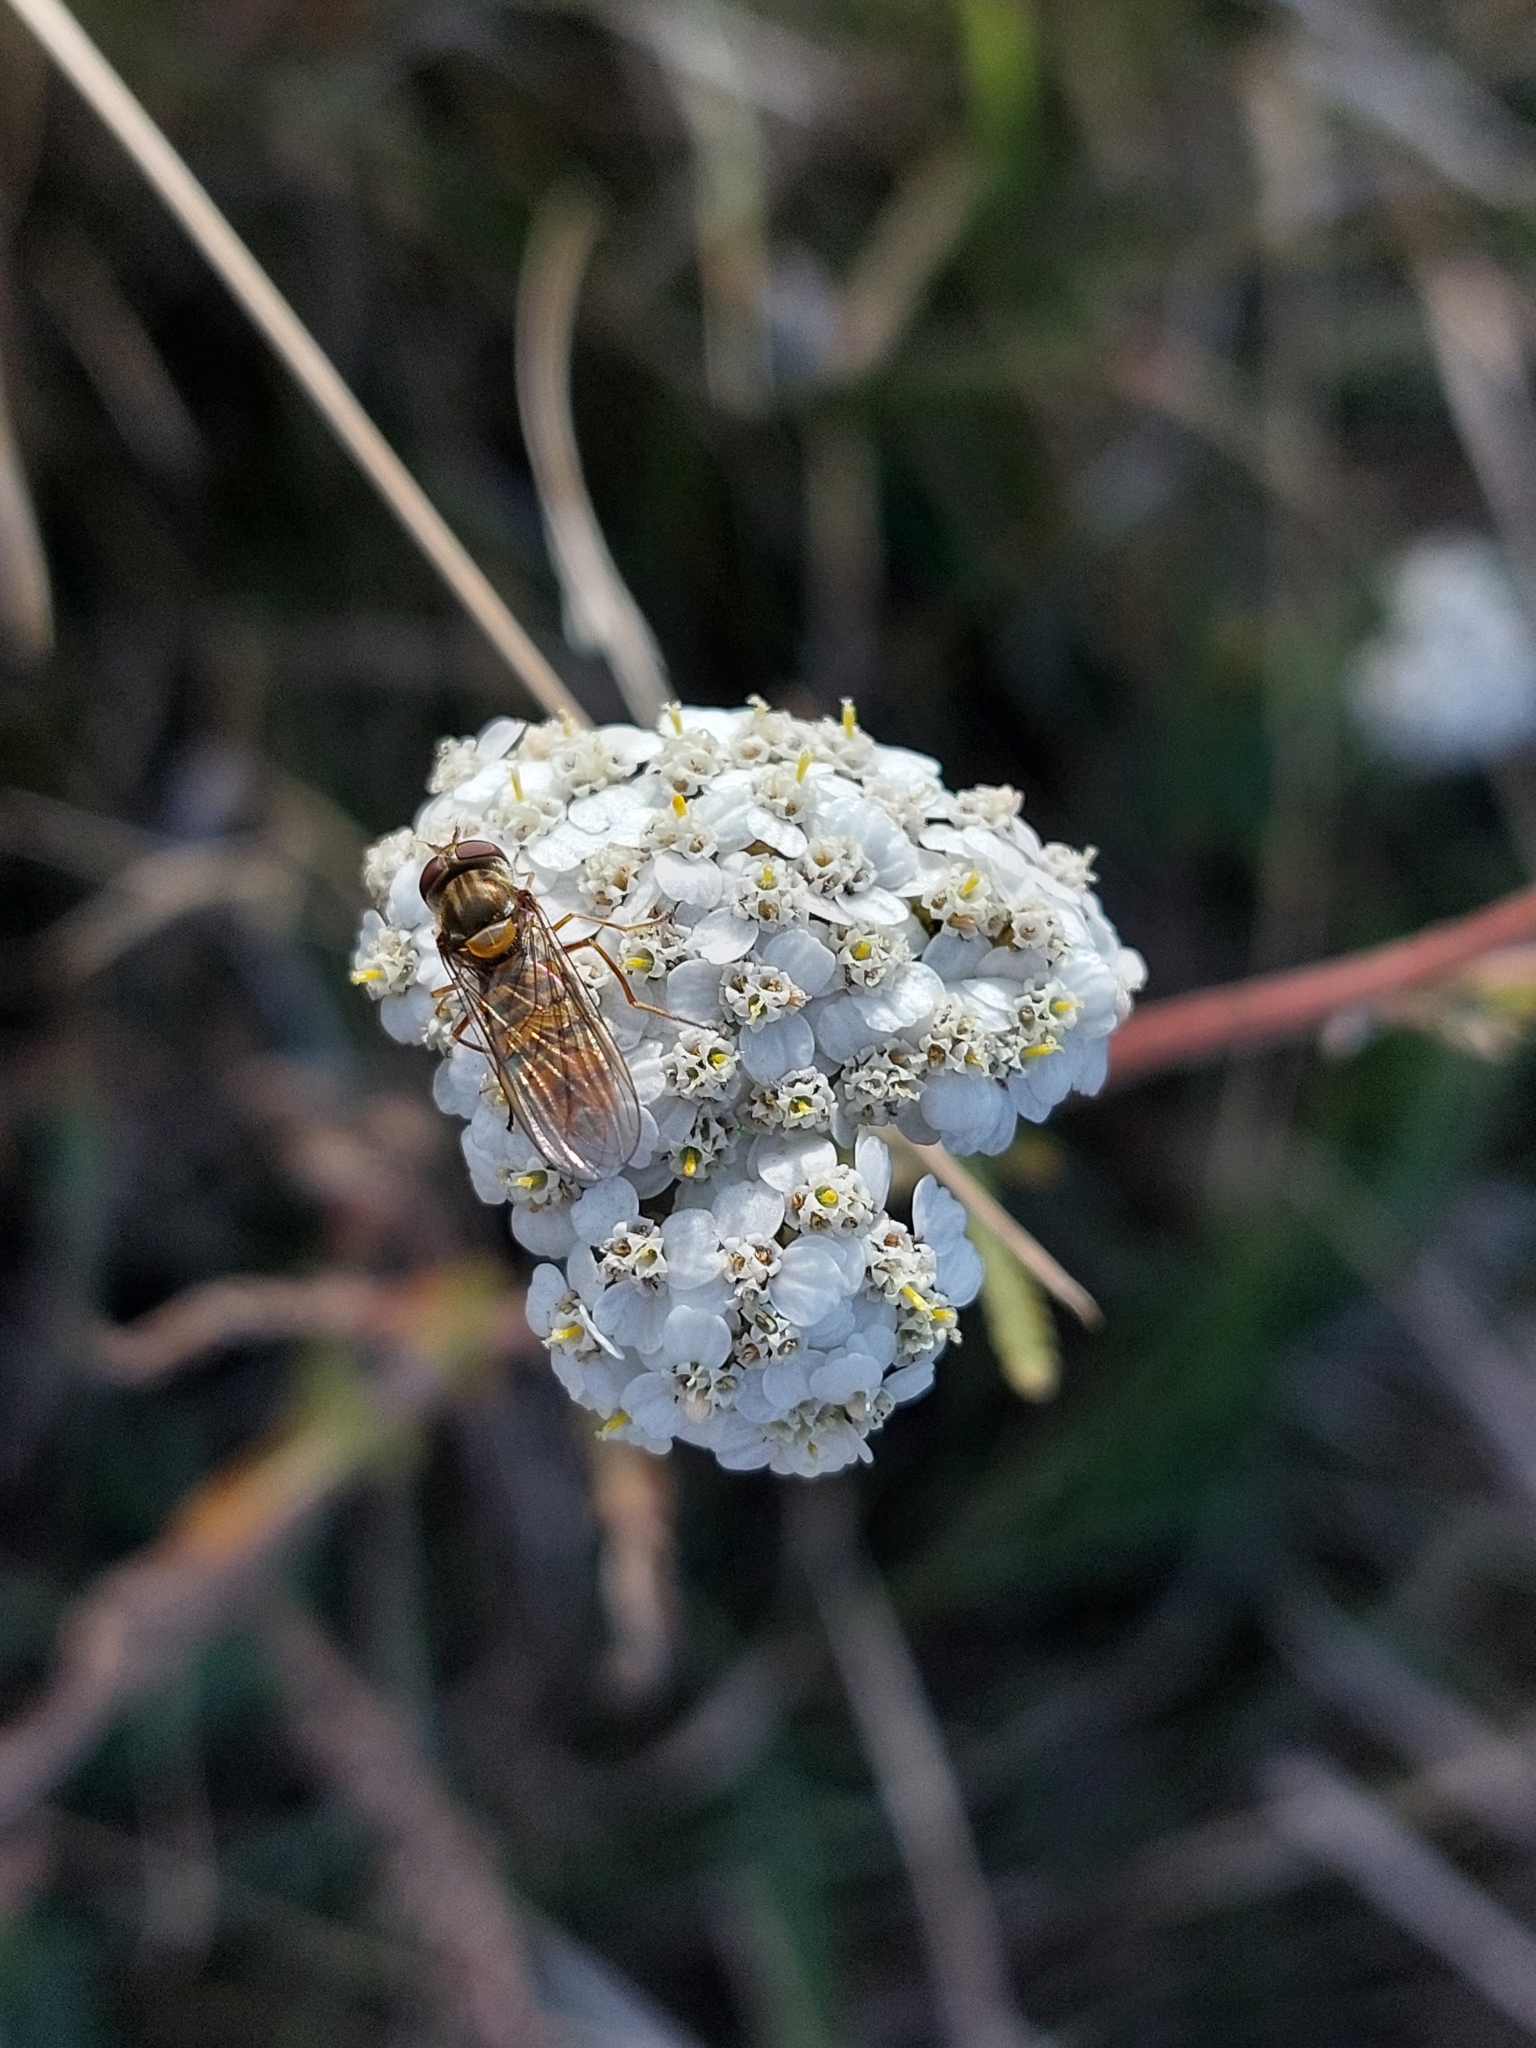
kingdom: Animalia
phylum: Arthropoda
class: Insecta
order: Diptera
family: Syrphidae
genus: Episyrphus
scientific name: Episyrphus balteatus
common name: Marmalade hoverfly
